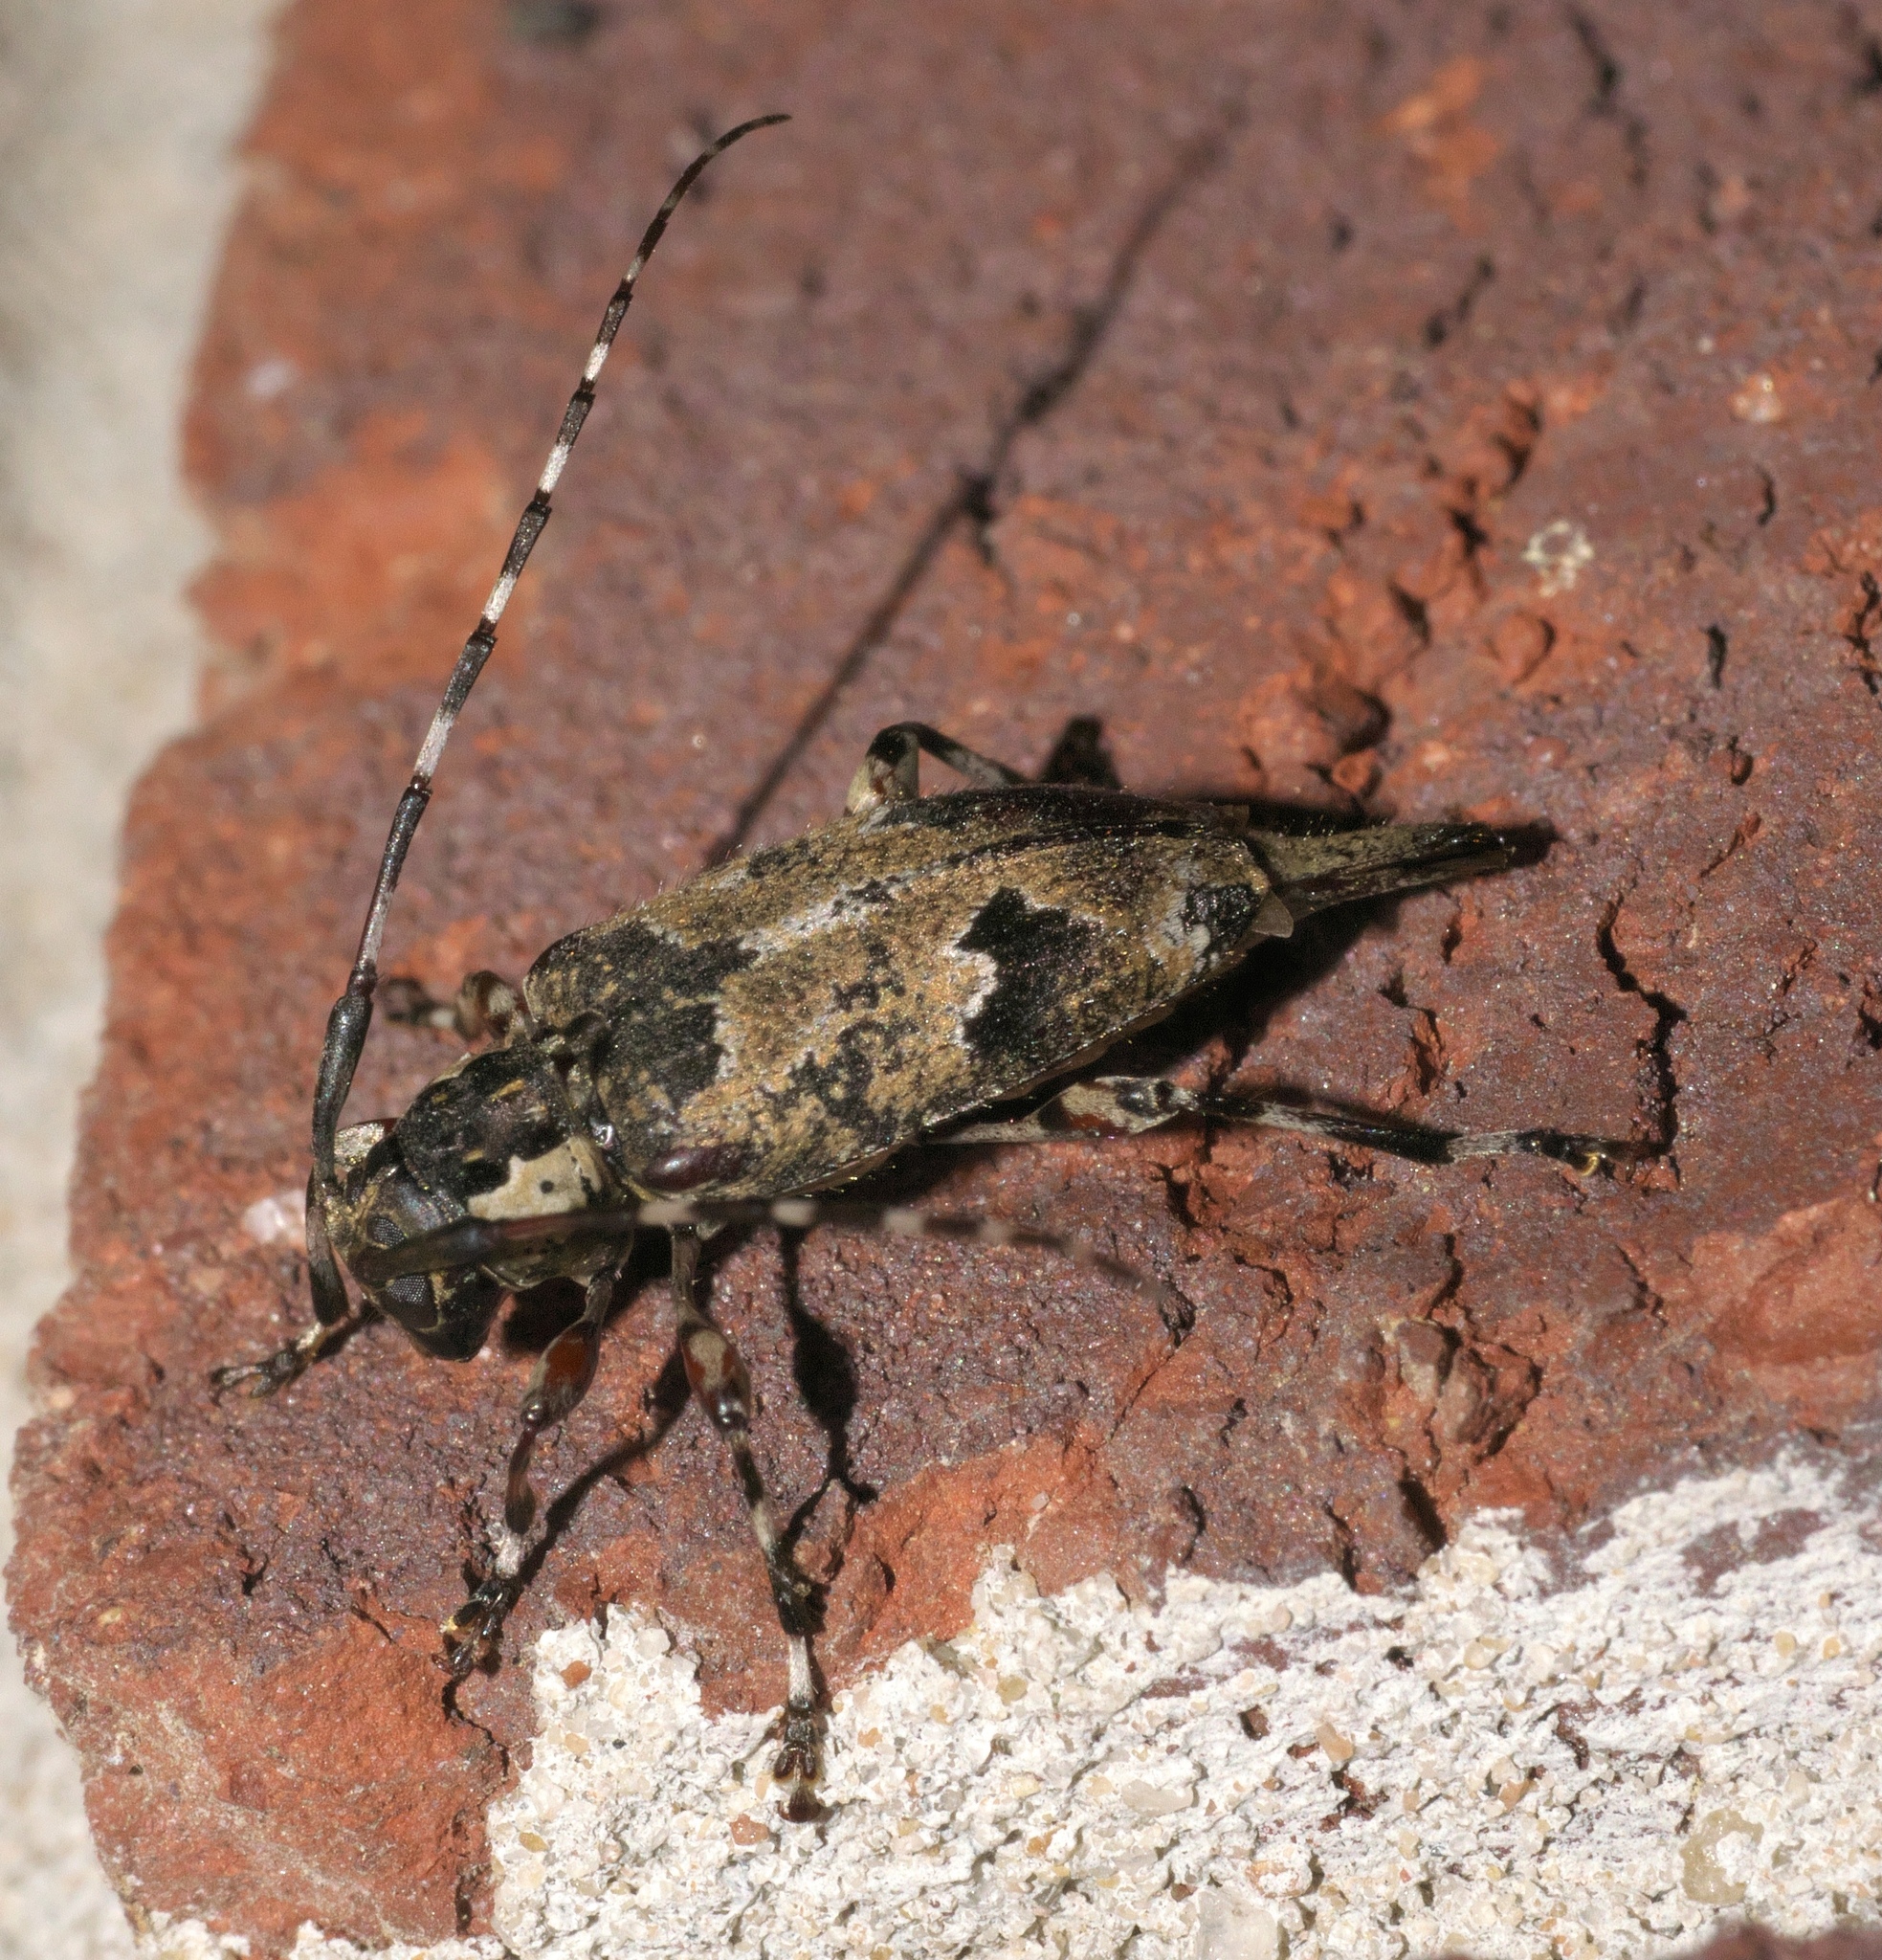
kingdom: Animalia
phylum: Arthropoda
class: Insecta
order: Coleoptera
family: Cerambycidae
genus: Graphisurus
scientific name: Graphisurus triangulifer
